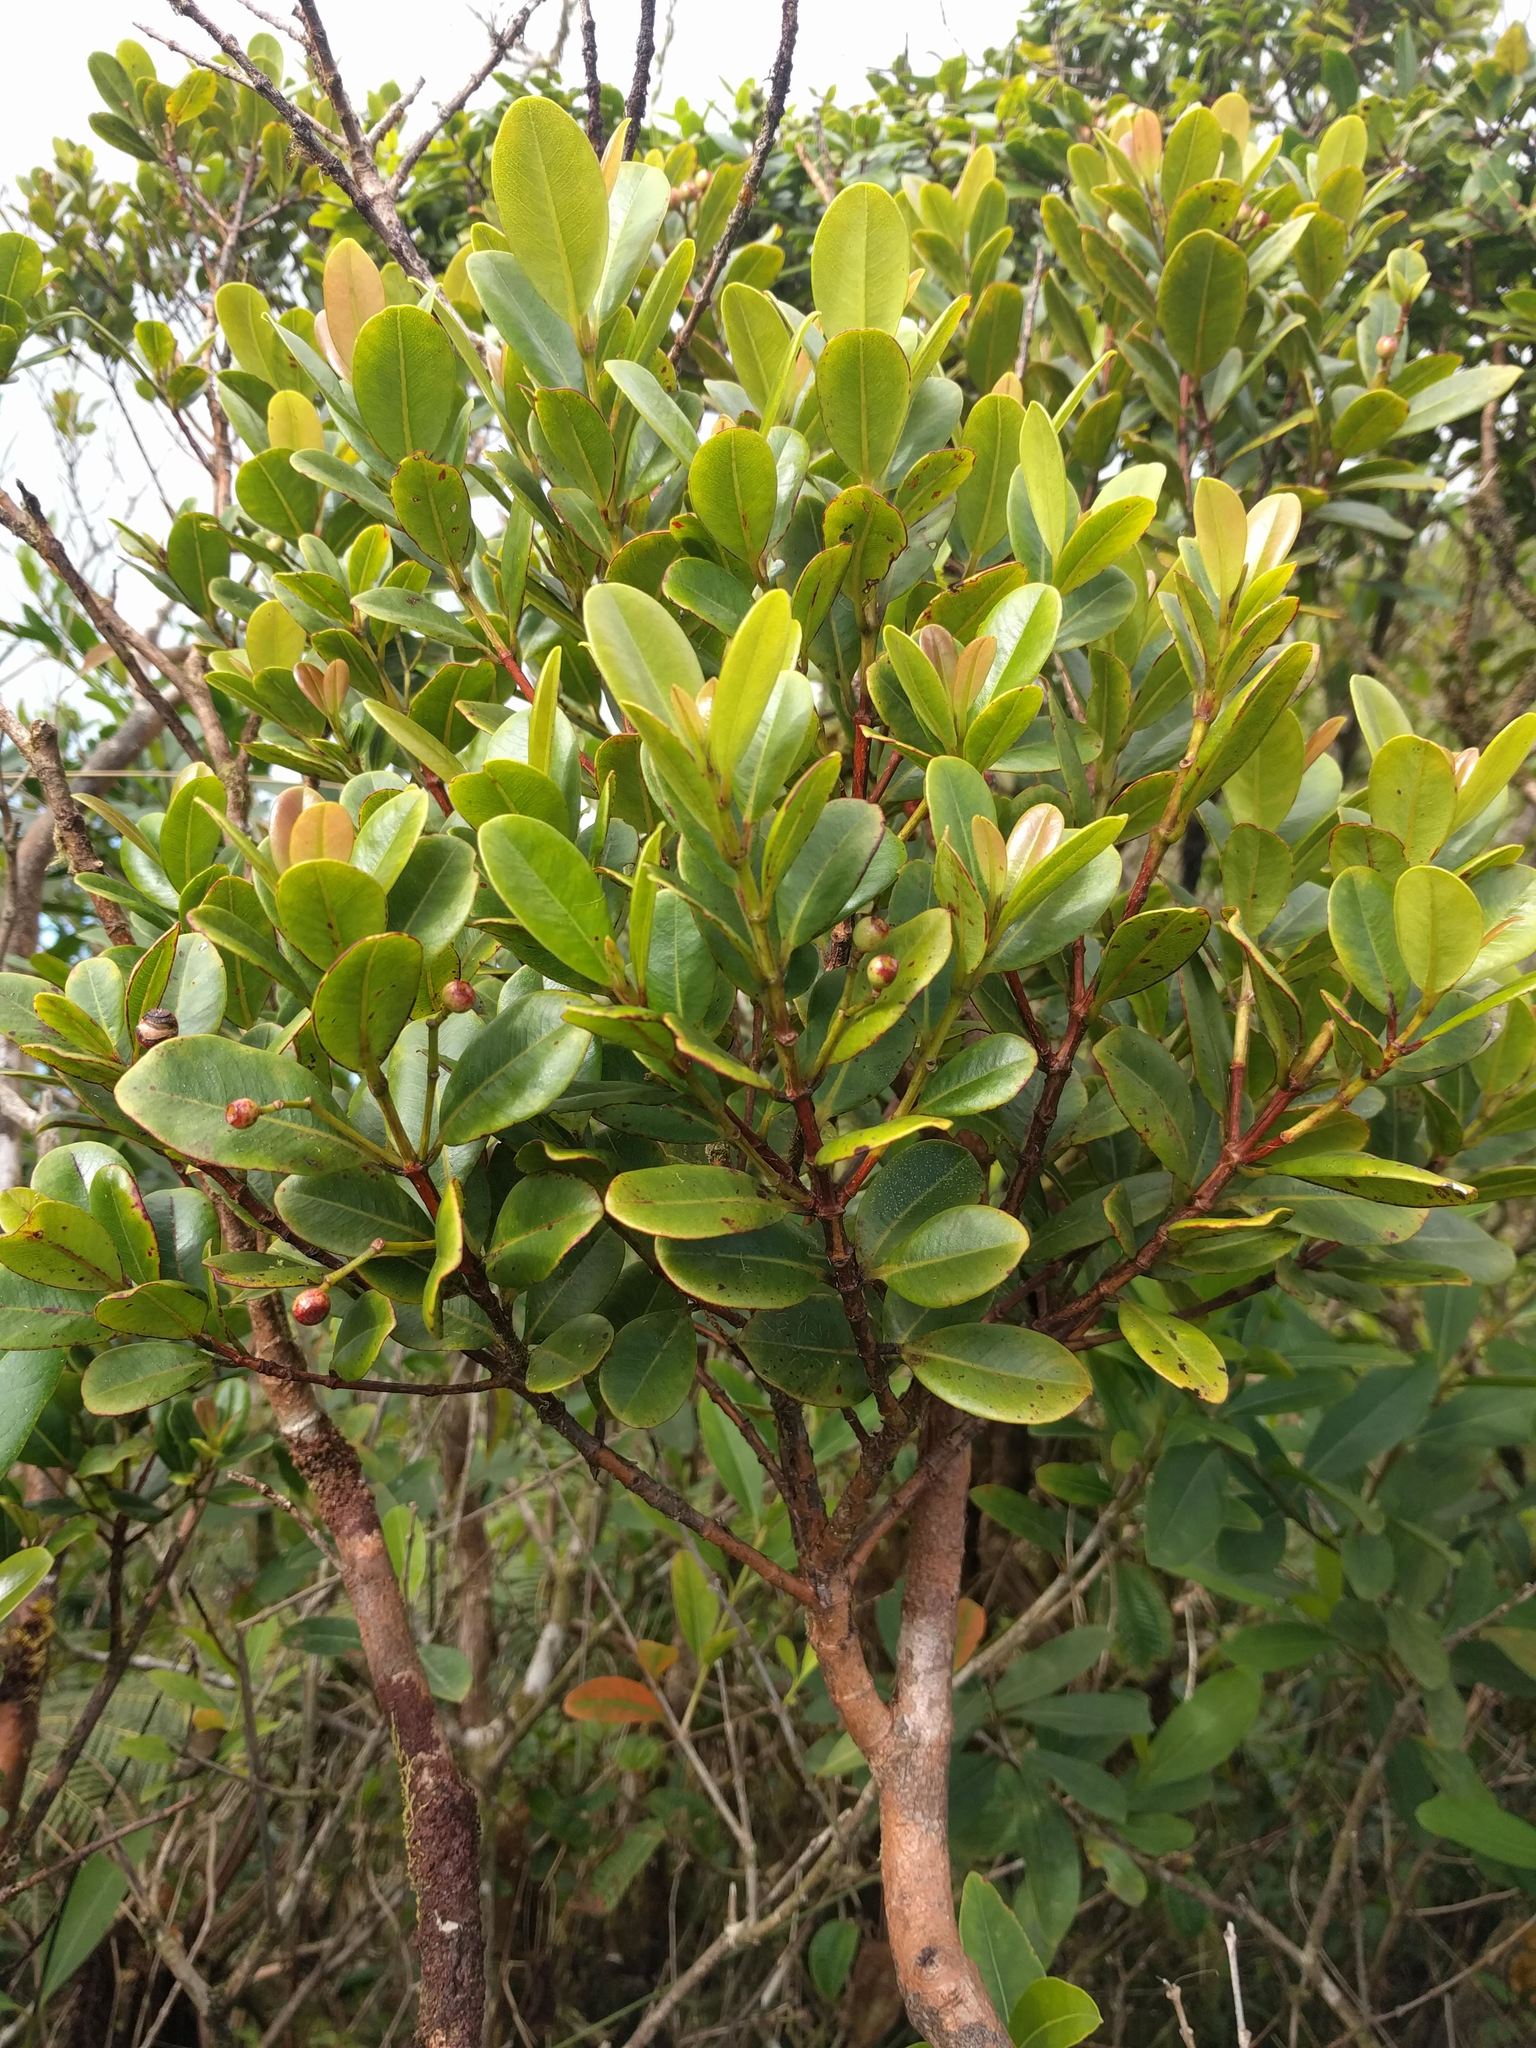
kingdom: Plantae
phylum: Tracheophyta
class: Magnoliopsida
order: Myrtales
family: Myrtaceae
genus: Syzygium
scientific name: Syzygium sandwicense
